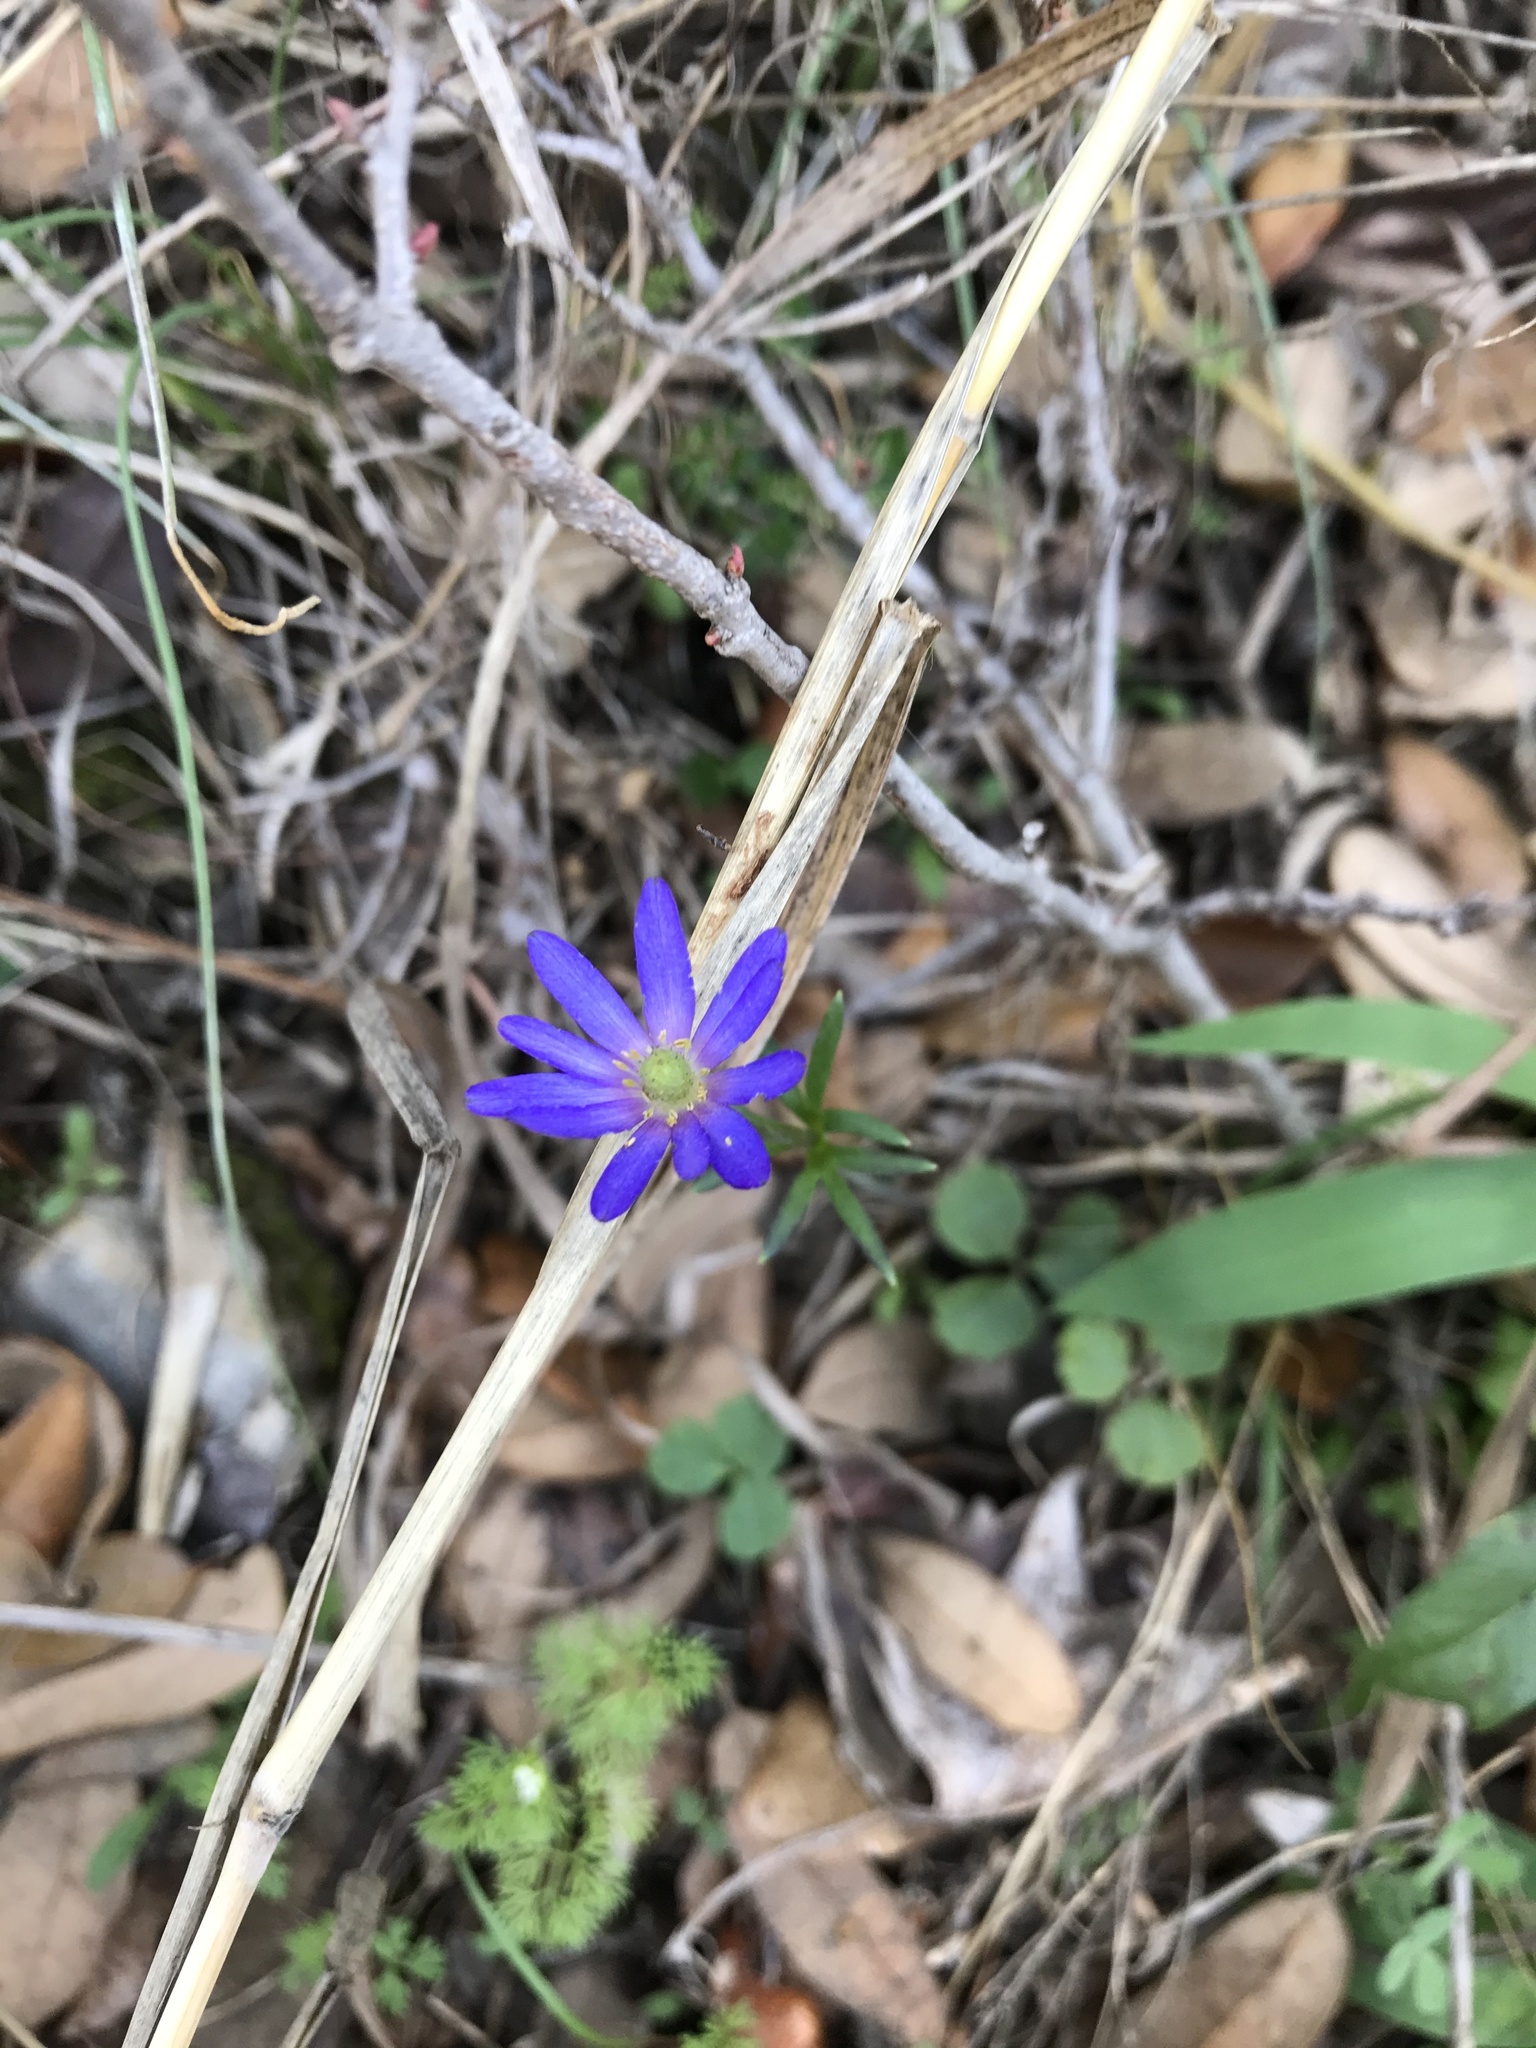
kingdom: Plantae
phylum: Tracheophyta
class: Magnoliopsida
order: Ranunculales
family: Ranunculaceae
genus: Anemone
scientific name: Anemone berlandieri
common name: Ten-petal anemone
